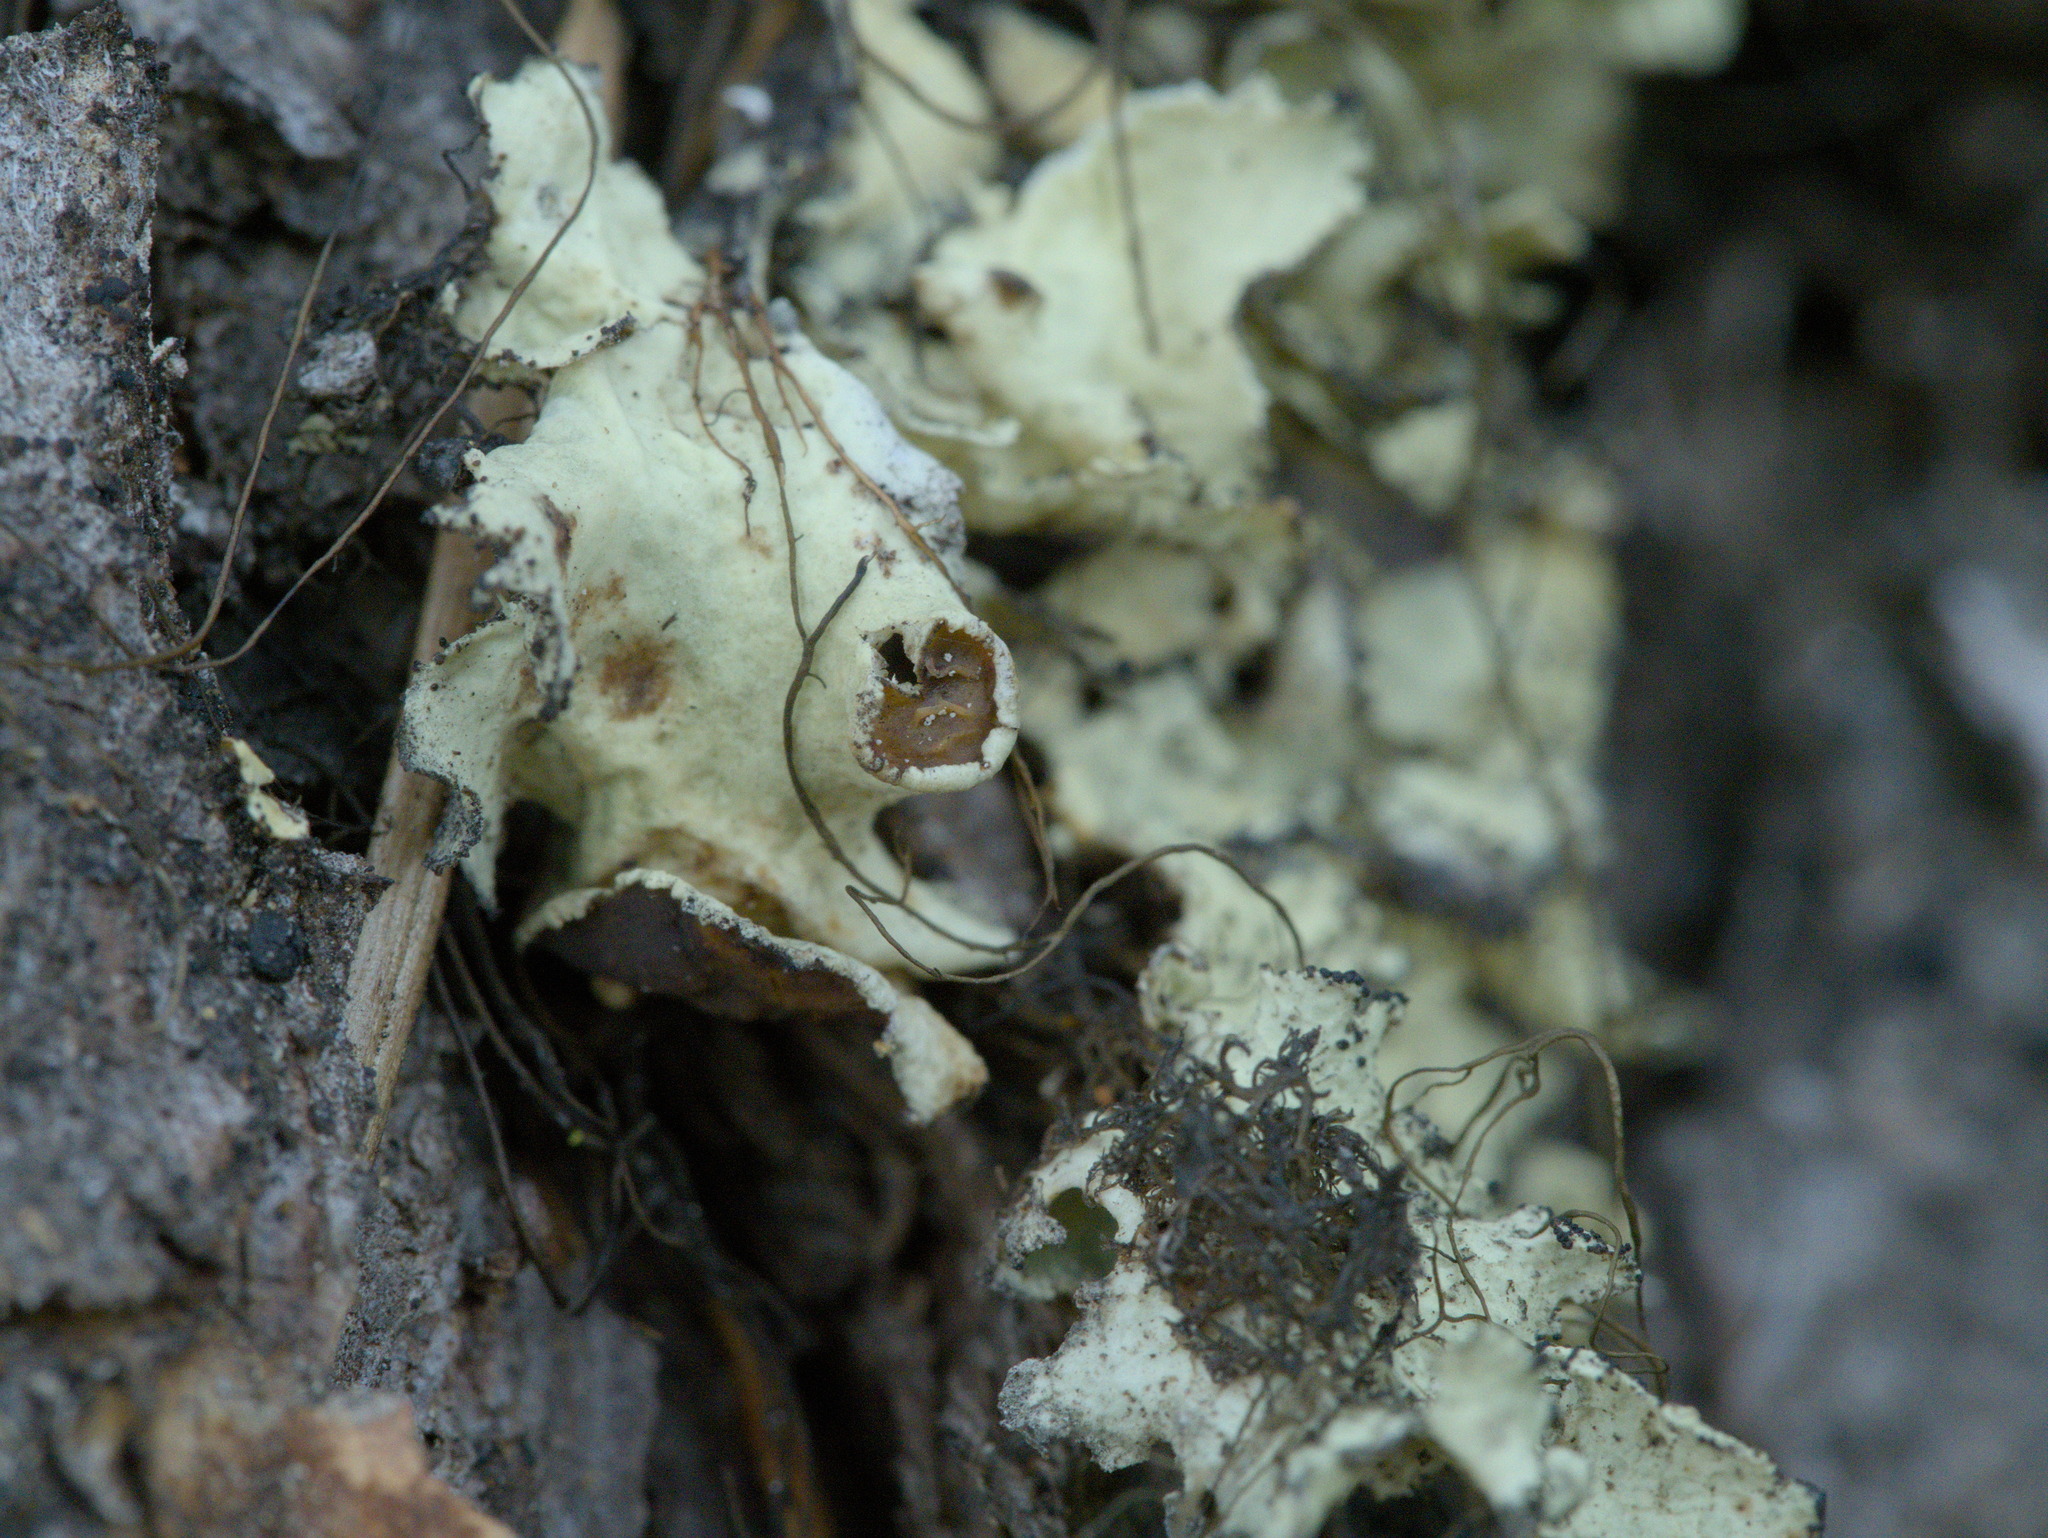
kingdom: Fungi
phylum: Ascomycota
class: Lecanoromycetes
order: Lecanorales
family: Parmeliaceae
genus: Ahtiana
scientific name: Ahtiana pallidula
